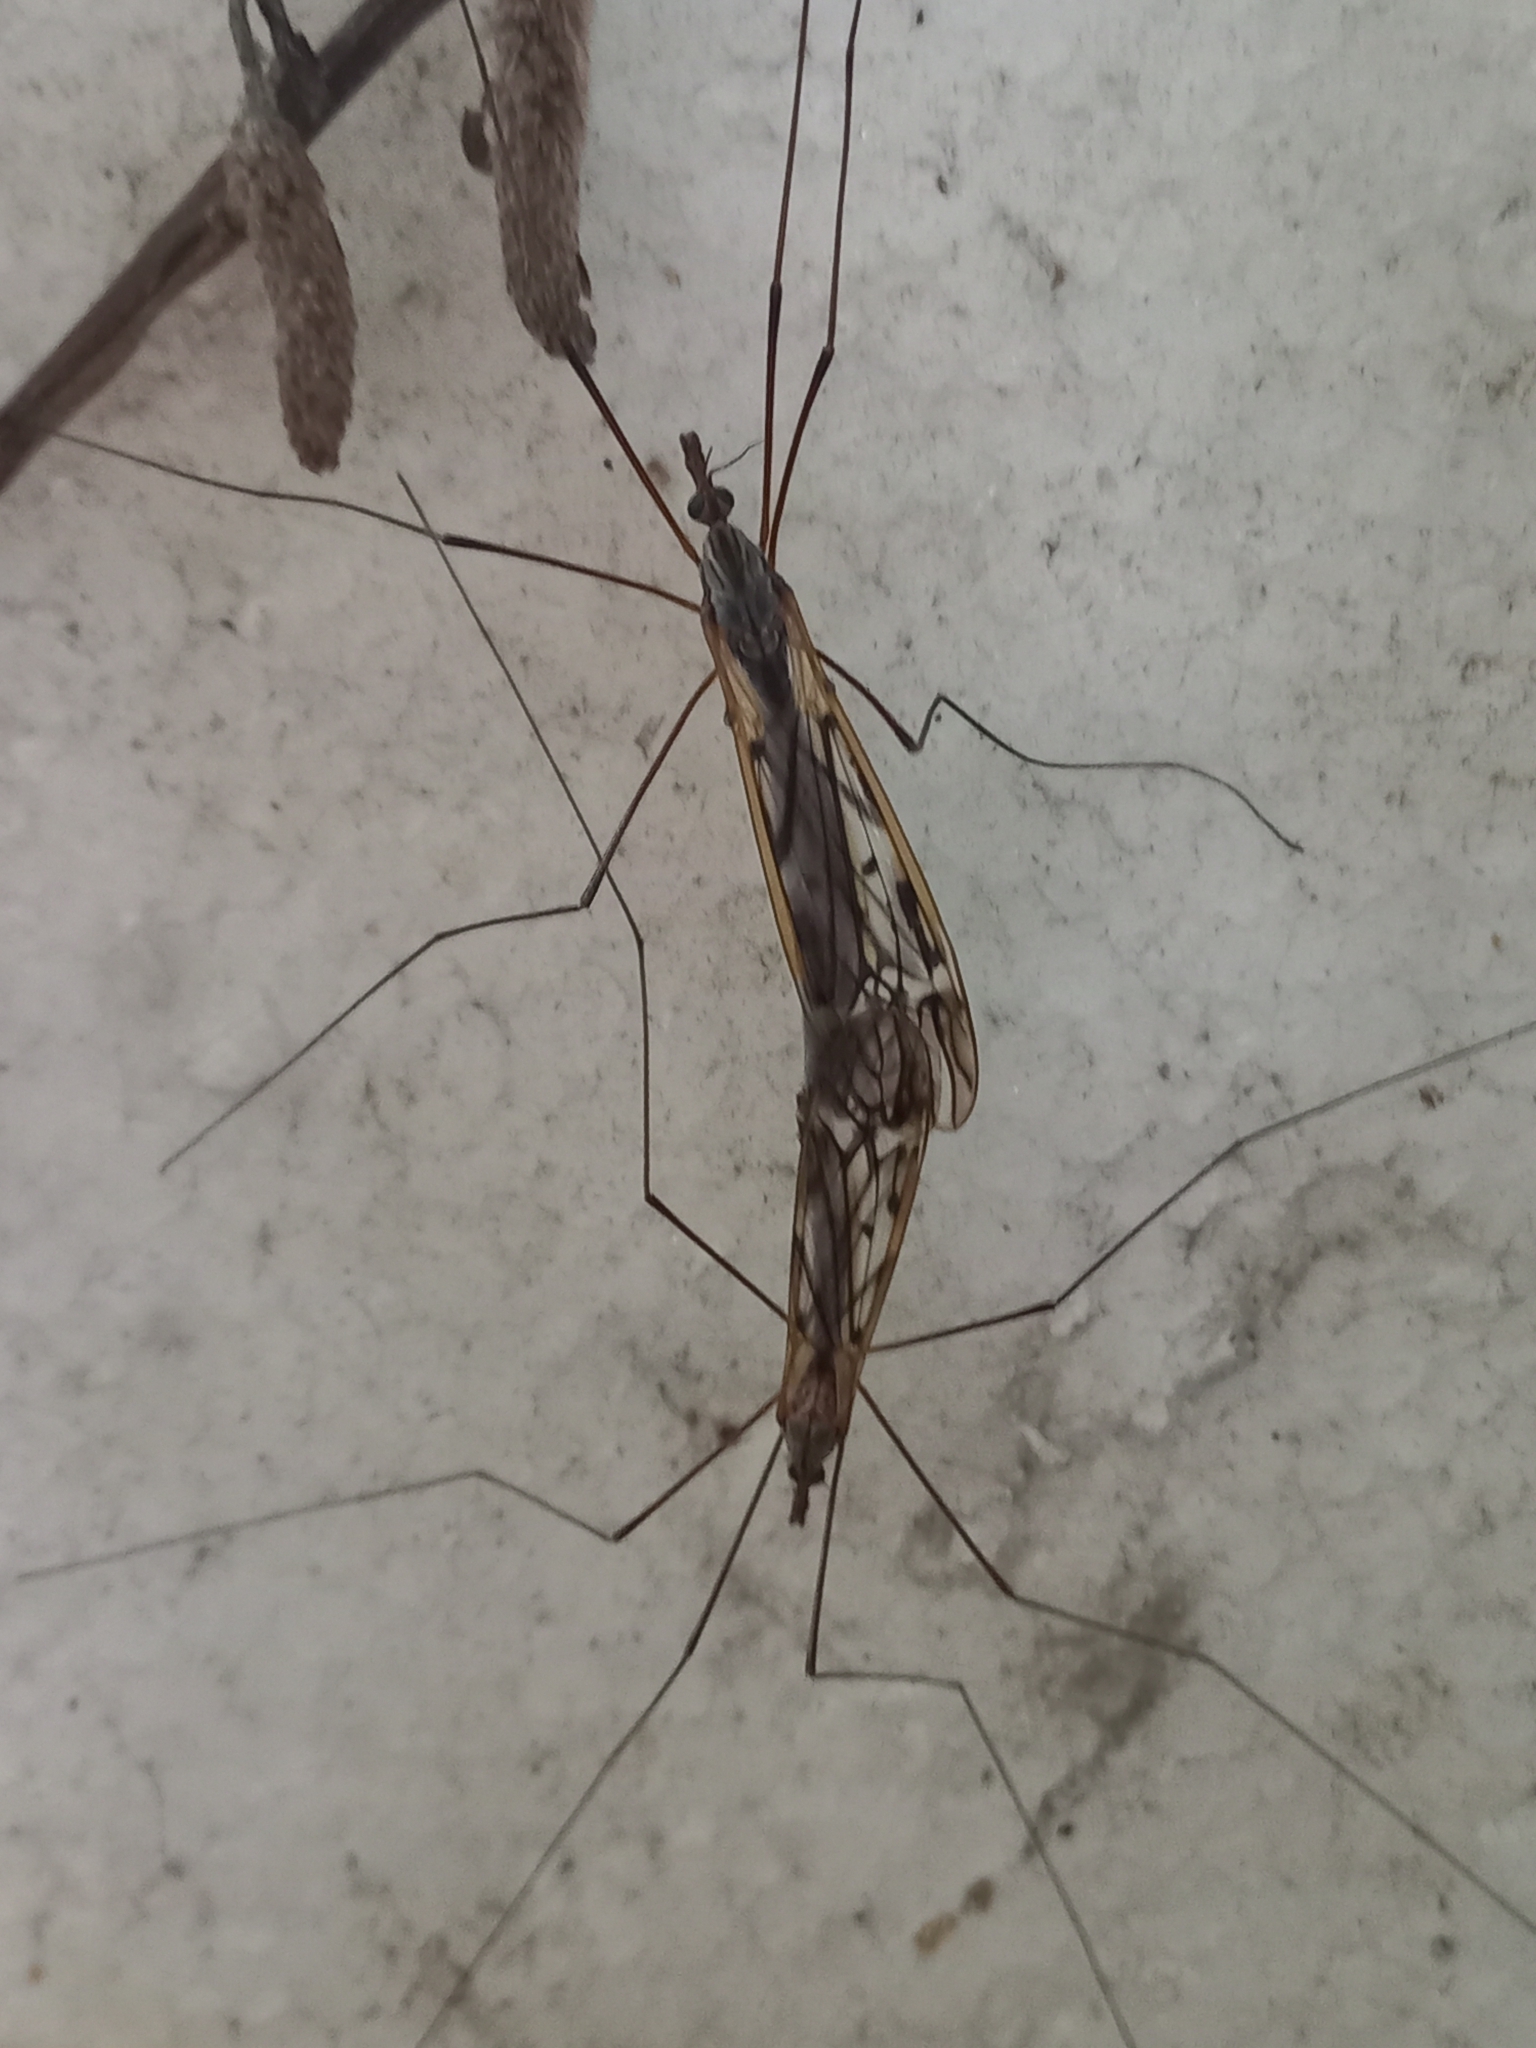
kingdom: Animalia
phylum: Arthropoda
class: Insecta
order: Diptera
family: Tipulidae
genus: Zelandotipula
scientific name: Zelandotipula novarae
